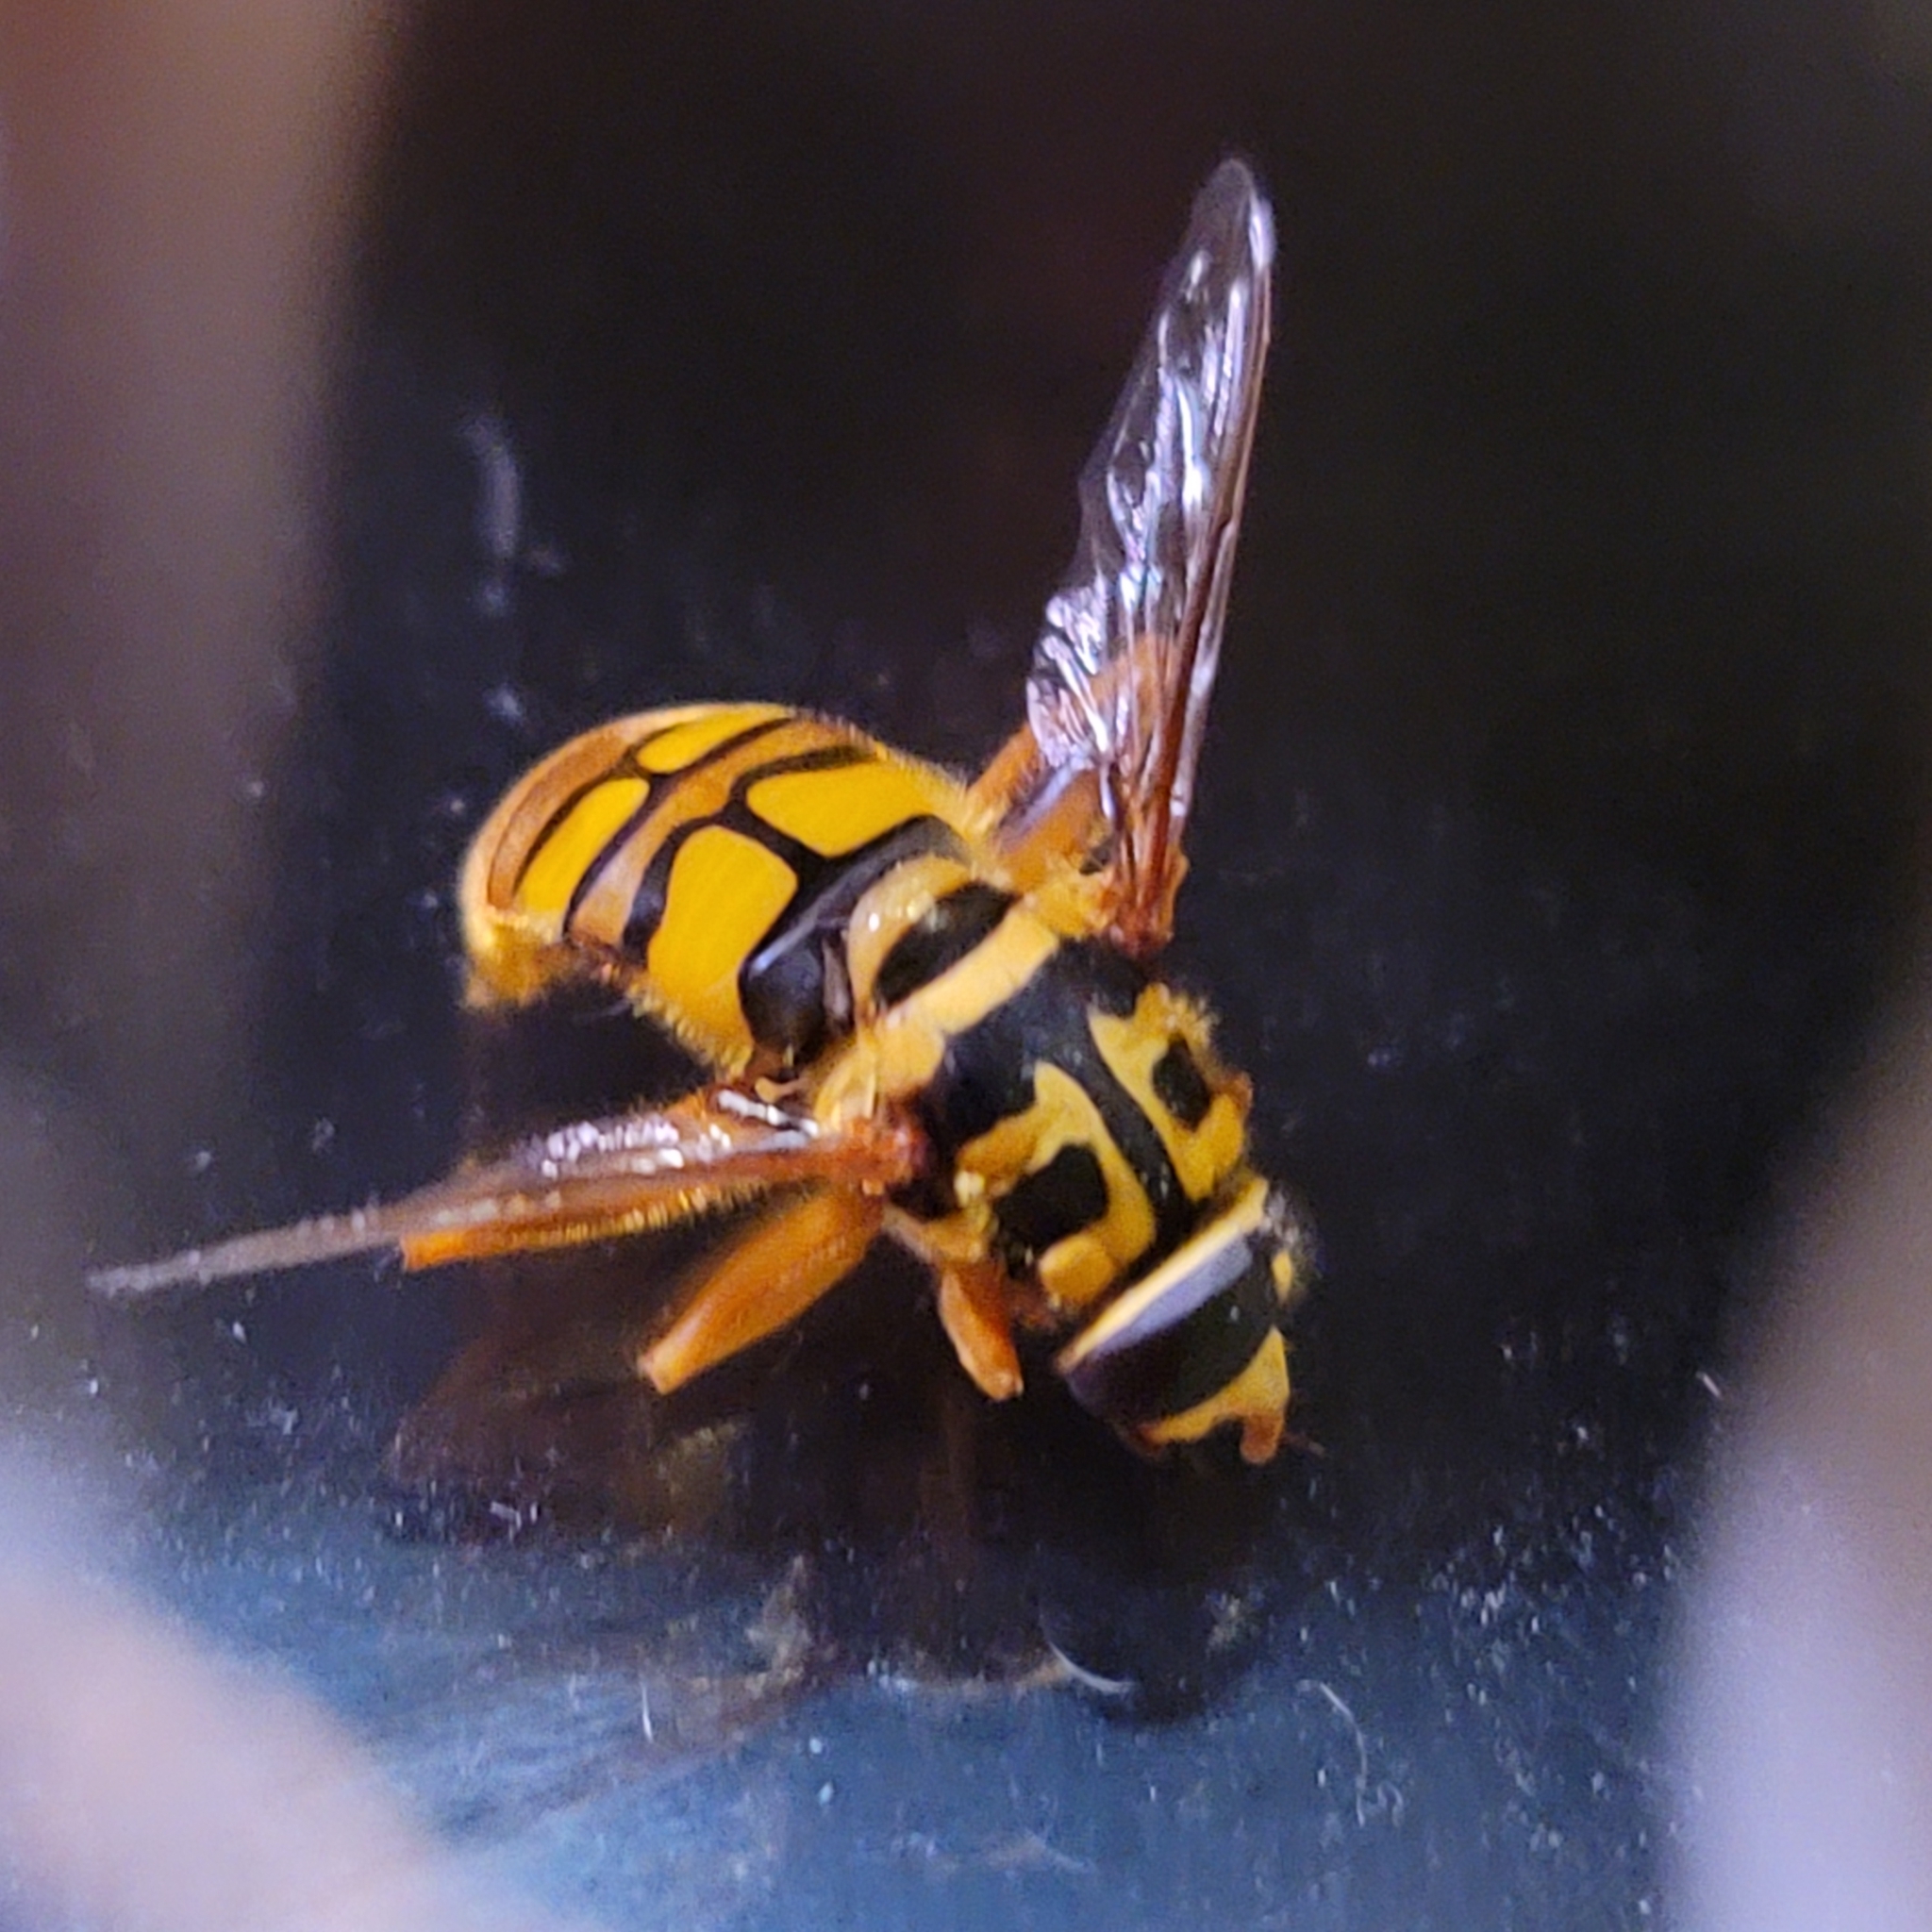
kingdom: Animalia
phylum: Arthropoda
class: Insecta
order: Diptera
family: Syrphidae
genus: Milesia
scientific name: Milesia virginiensis
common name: Virginia giant
